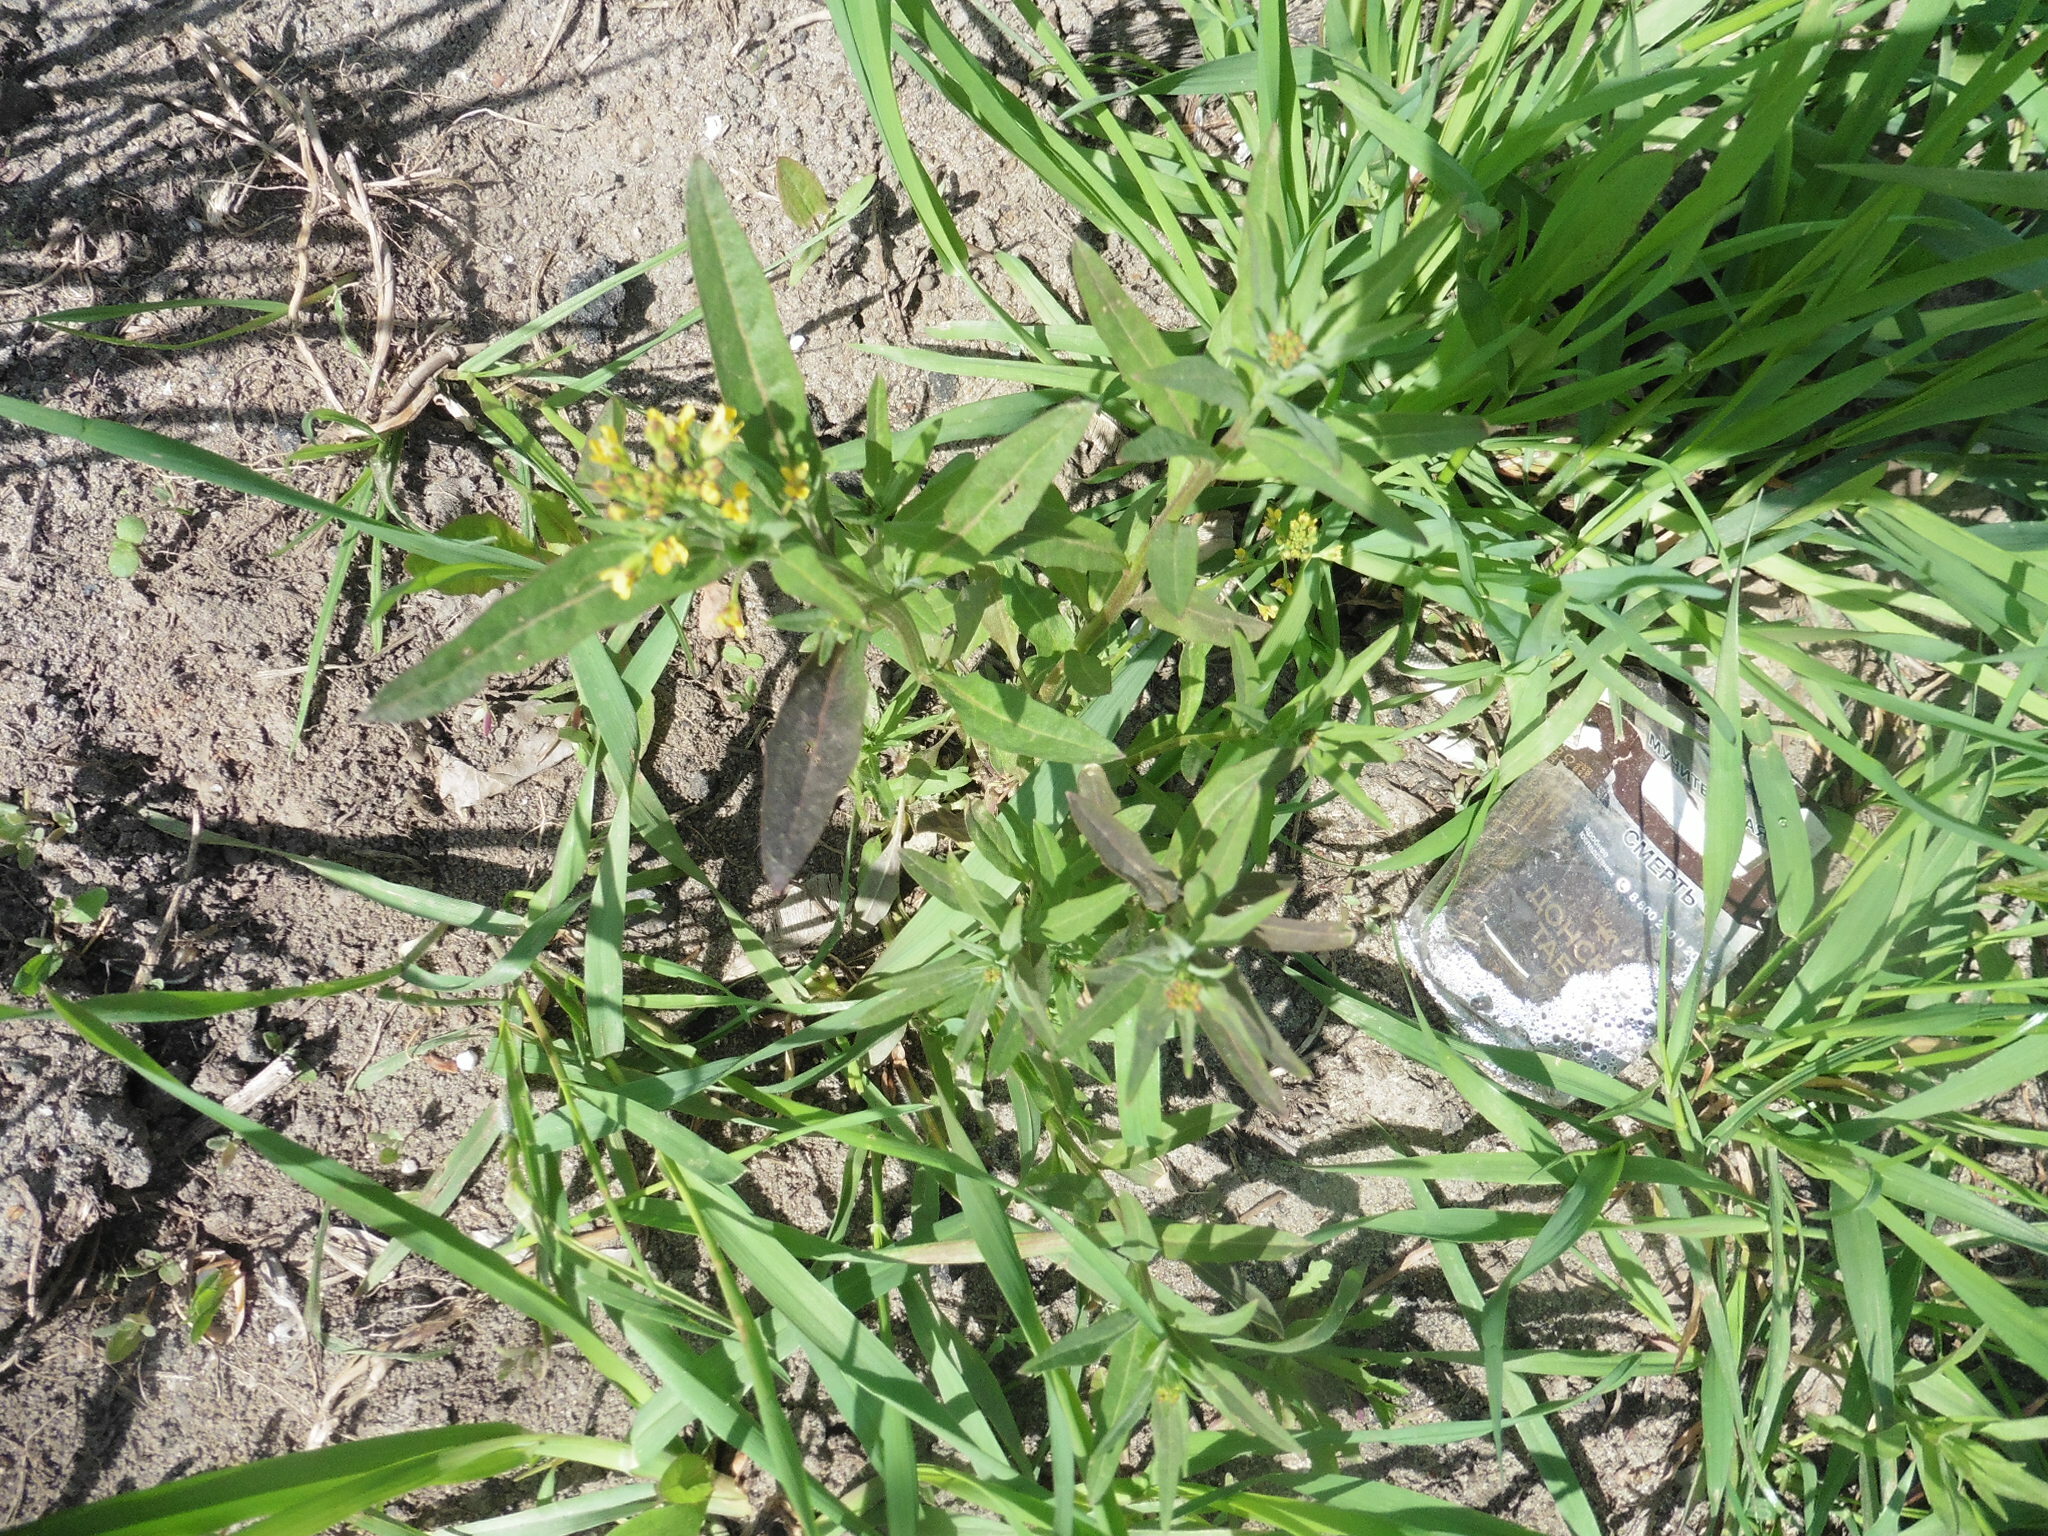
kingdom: Plantae
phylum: Tracheophyta
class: Magnoliopsida
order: Brassicales
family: Brassicaceae
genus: Erysimum
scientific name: Erysimum cheiranthoides
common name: Treacle mustard
